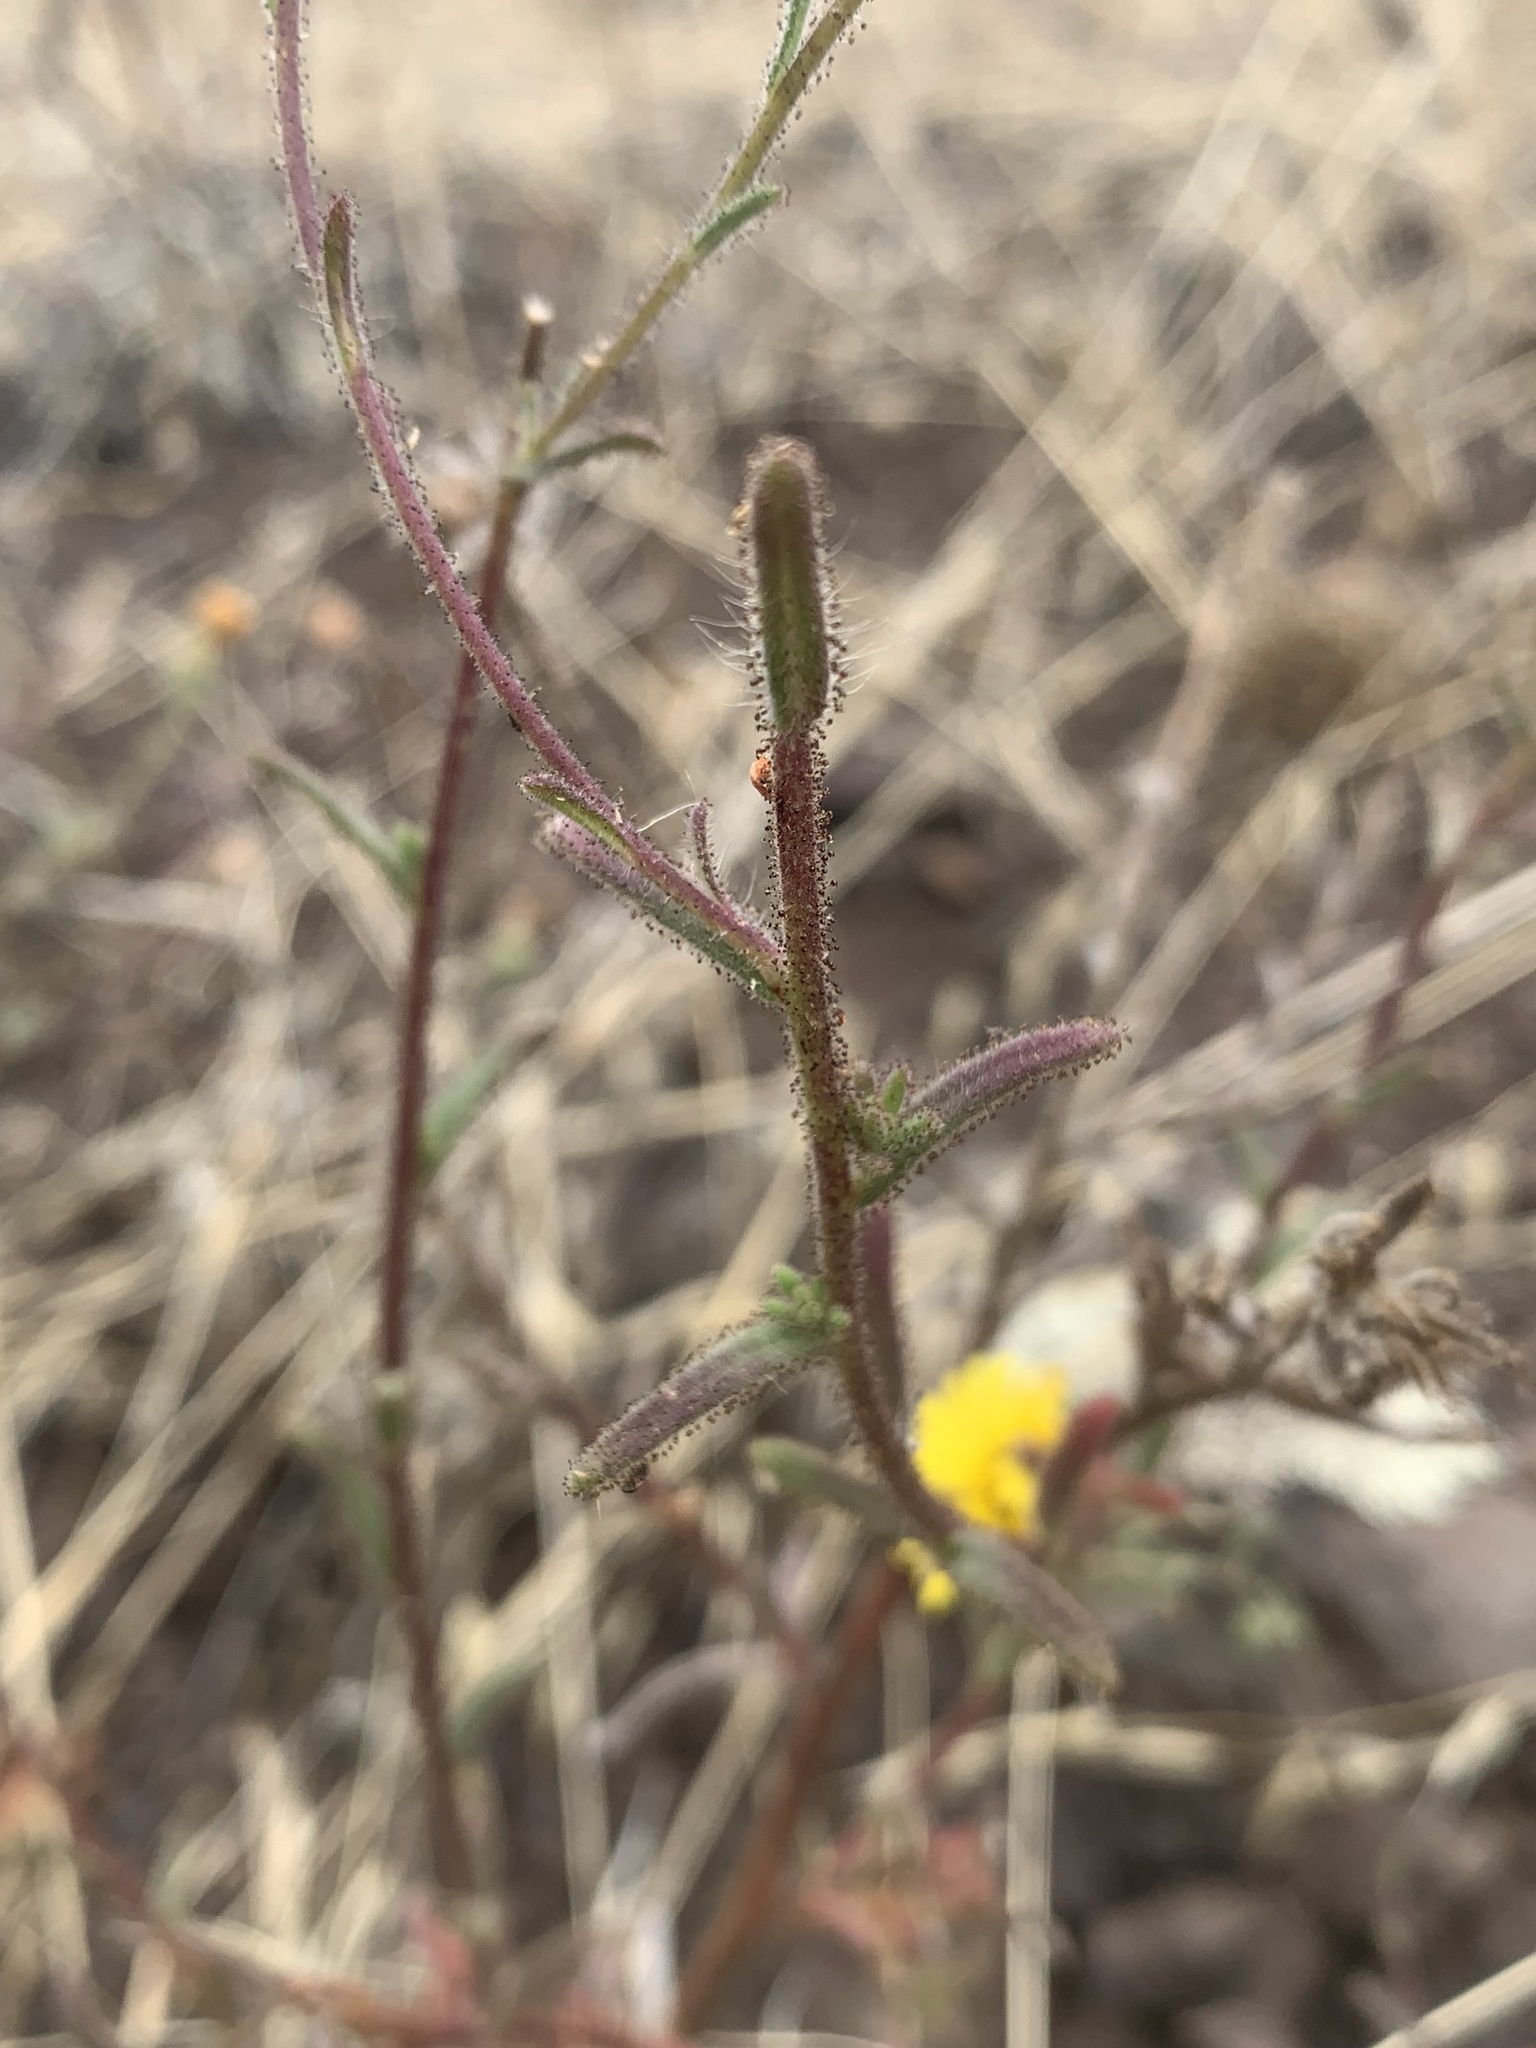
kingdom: Plantae
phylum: Tracheophyta
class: Magnoliopsida
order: Asterales
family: Asteraceae
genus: Madia
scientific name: Madia elegans
